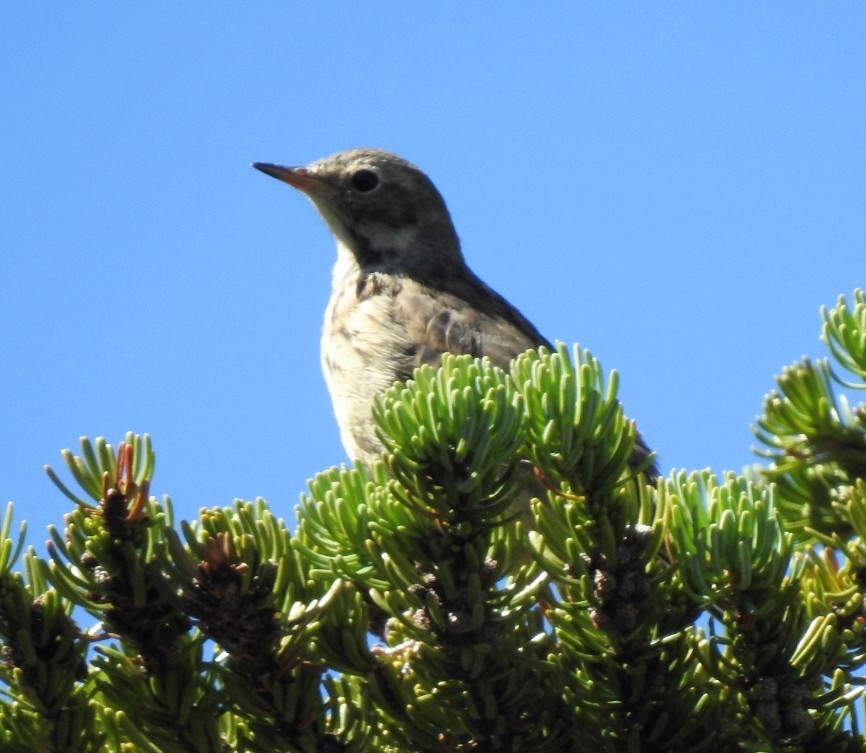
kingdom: Animalia
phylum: Chordata
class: Aves
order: Passeriformes
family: Motacillidae
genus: Anthus
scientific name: Anthus rubescens
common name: Buff-bellied pipit
